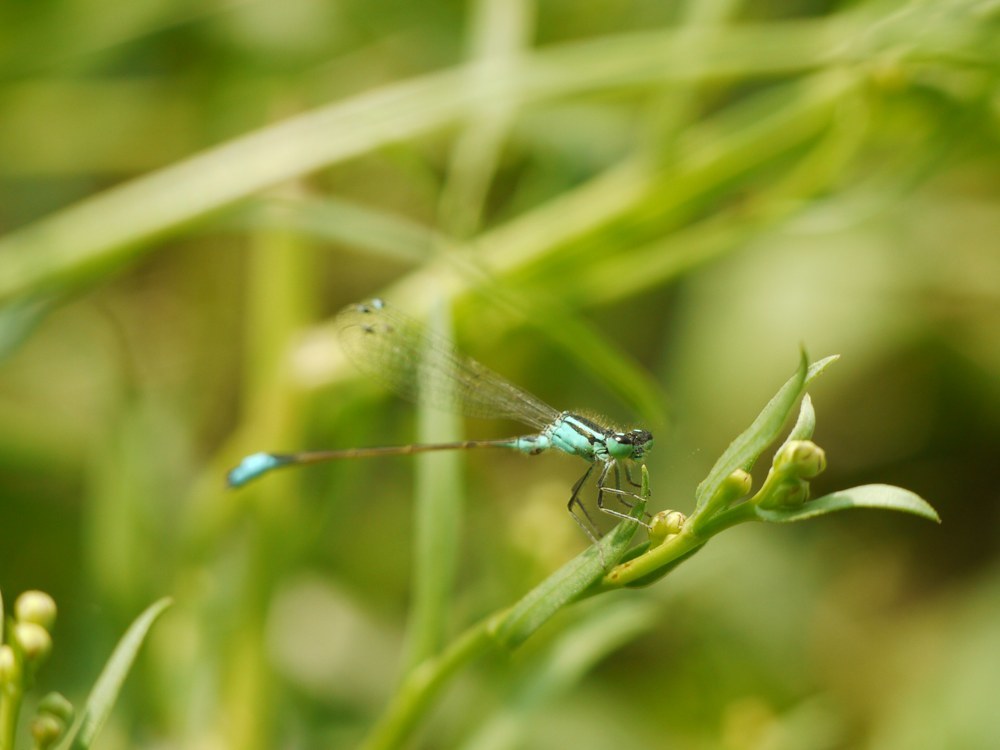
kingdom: Animalia
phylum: Arthropoda
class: Insecta
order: Odonata
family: Coenagrionidae
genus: Ischnura
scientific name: Ischnura elegans
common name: Blue-tailed damselfly
